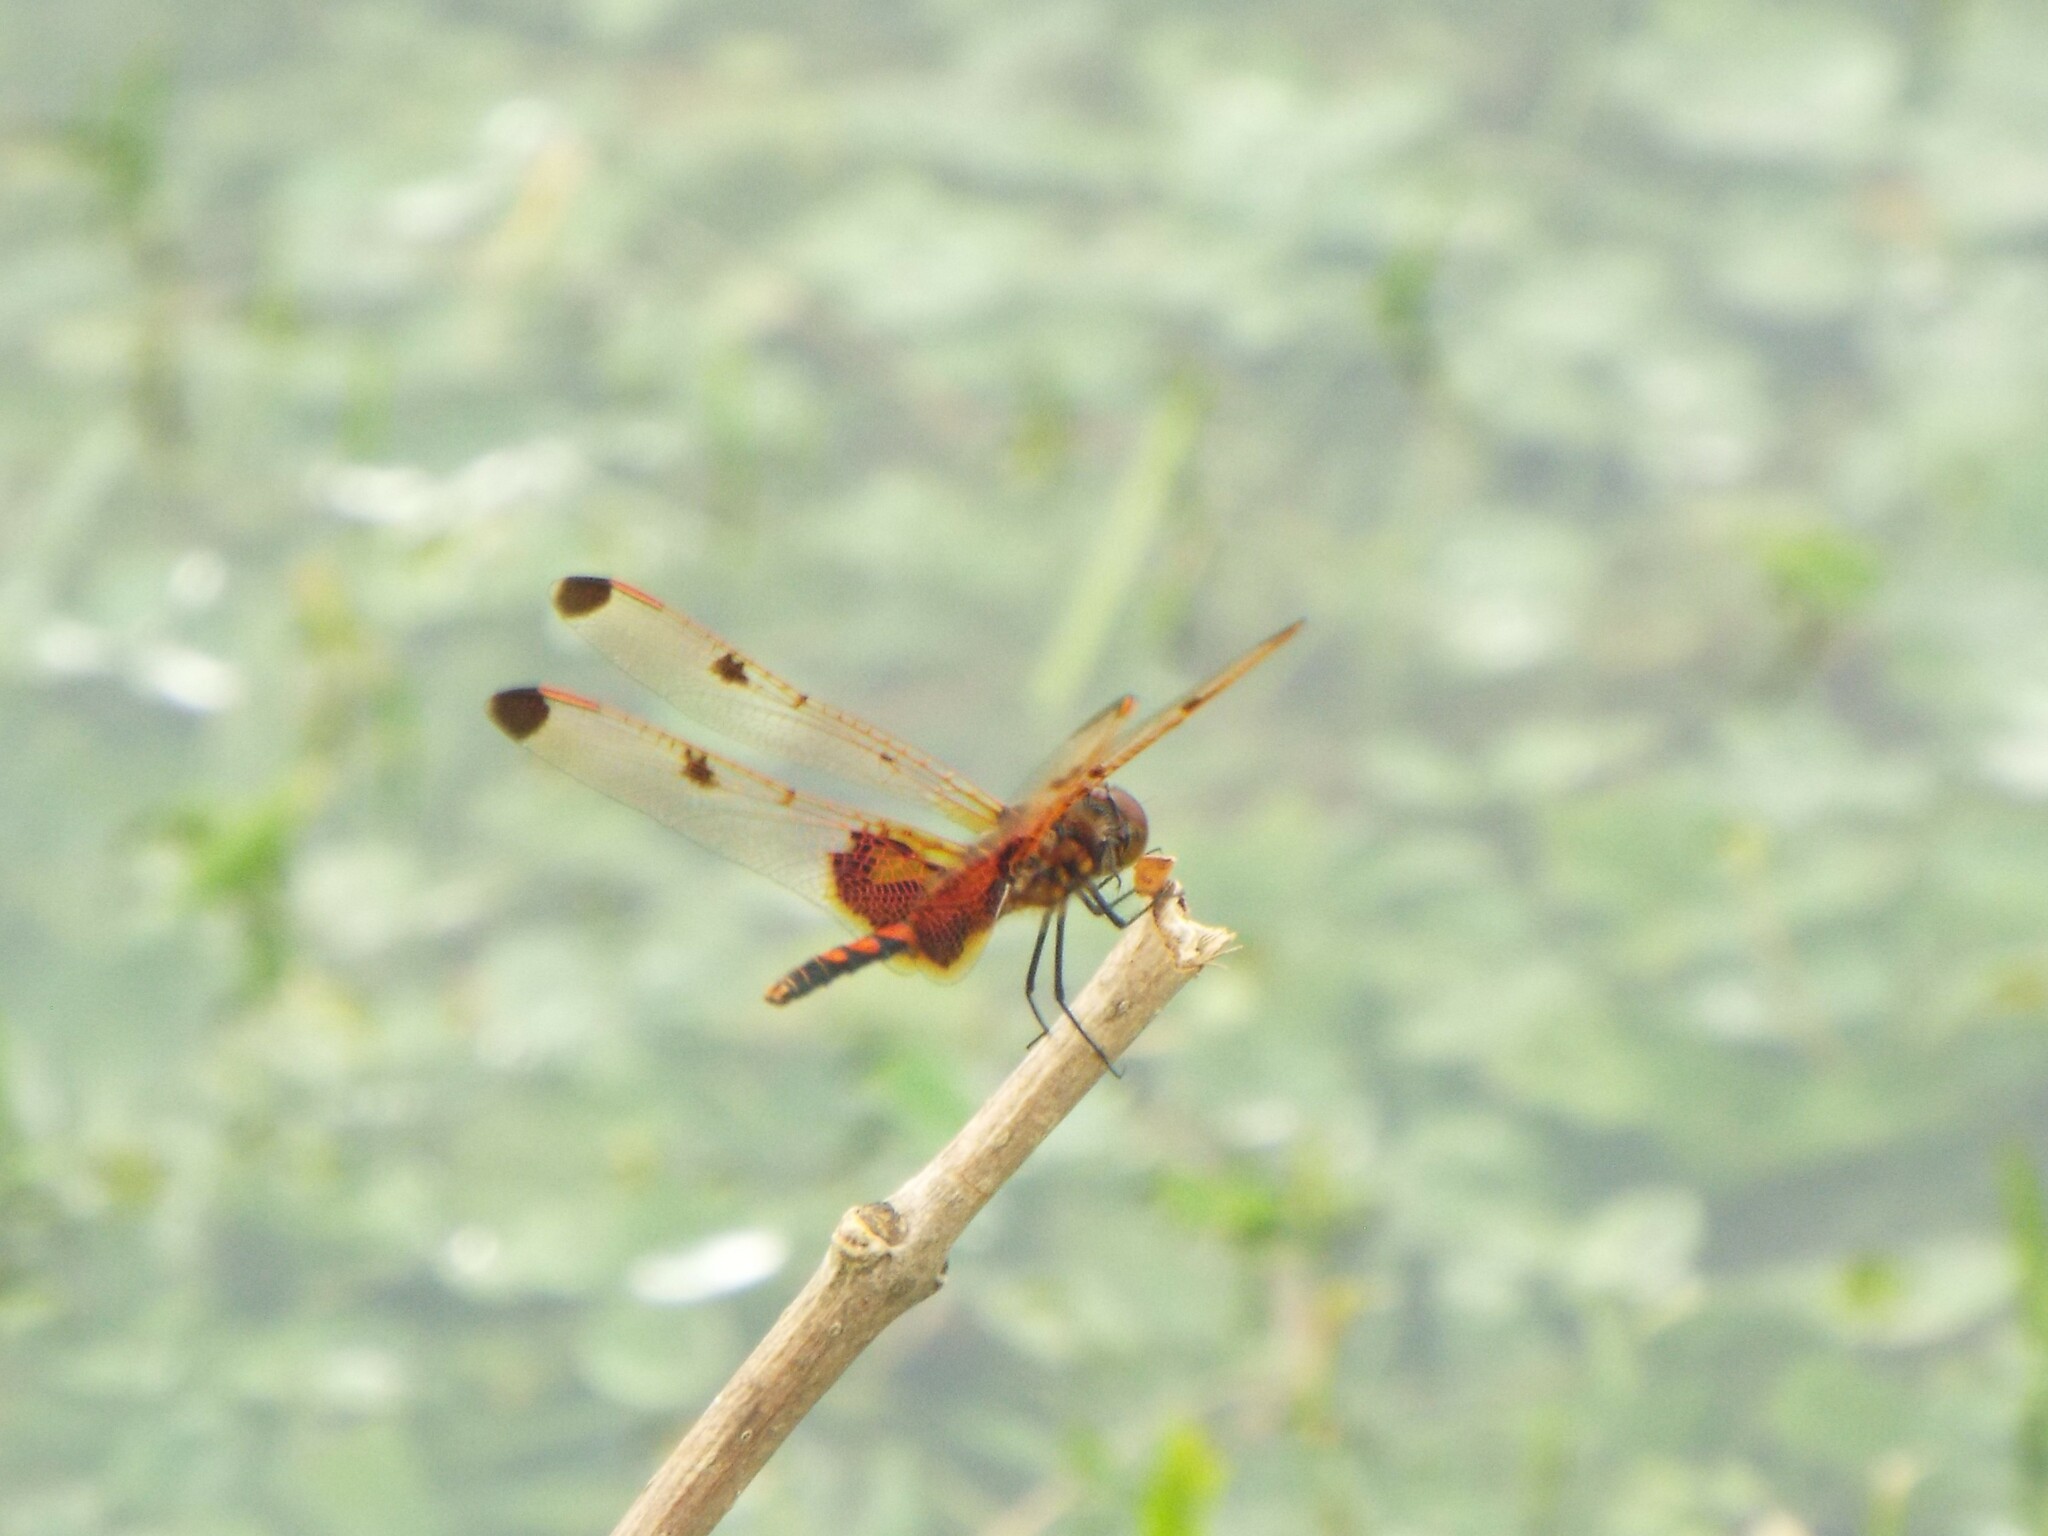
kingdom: Animalia
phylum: Arthropoda
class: Insecta
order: Odonata
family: Libellulidae
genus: Celithemis
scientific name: Celithemis elisa
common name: Calico pennant
